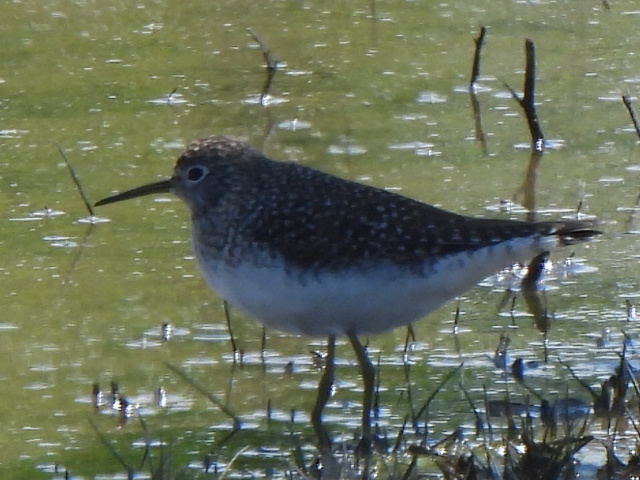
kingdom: Animalia
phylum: Chordata
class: Aves
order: Charadriiformes
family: Scolopacidae
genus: Tringa
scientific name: Tringa solitaria
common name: Solitary sandpiper
